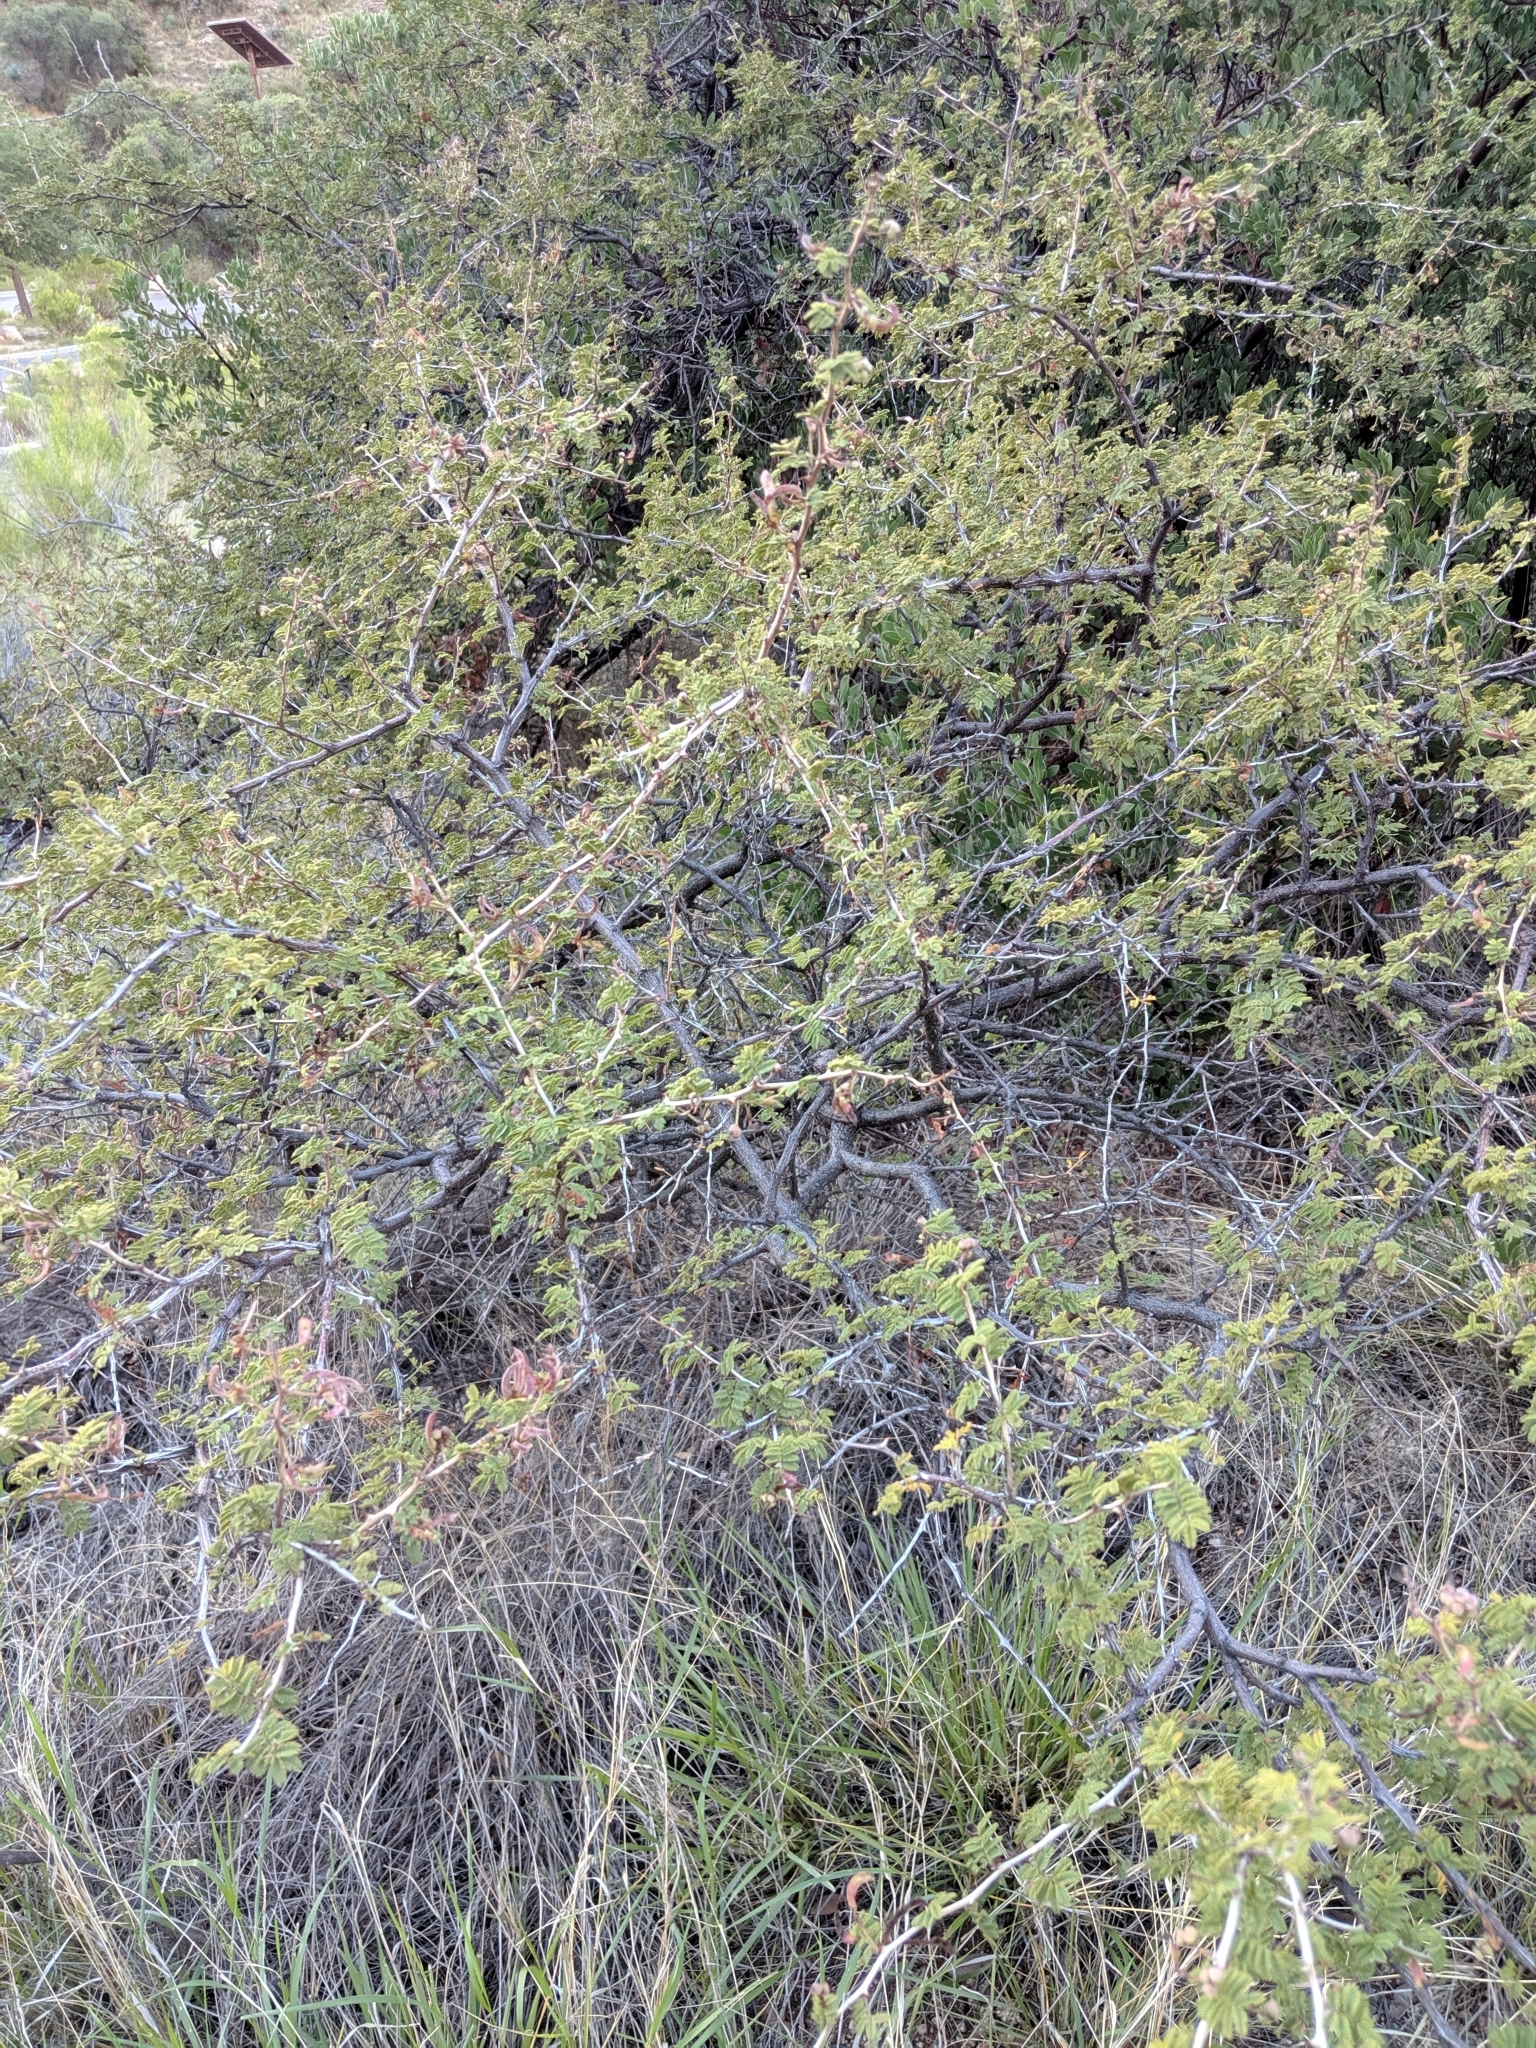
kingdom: Plantae
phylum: Tracheophyta
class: Magnoliopsida
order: Fabales
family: Fabaceae
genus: Mimosa
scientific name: Mimosa biuncifera
